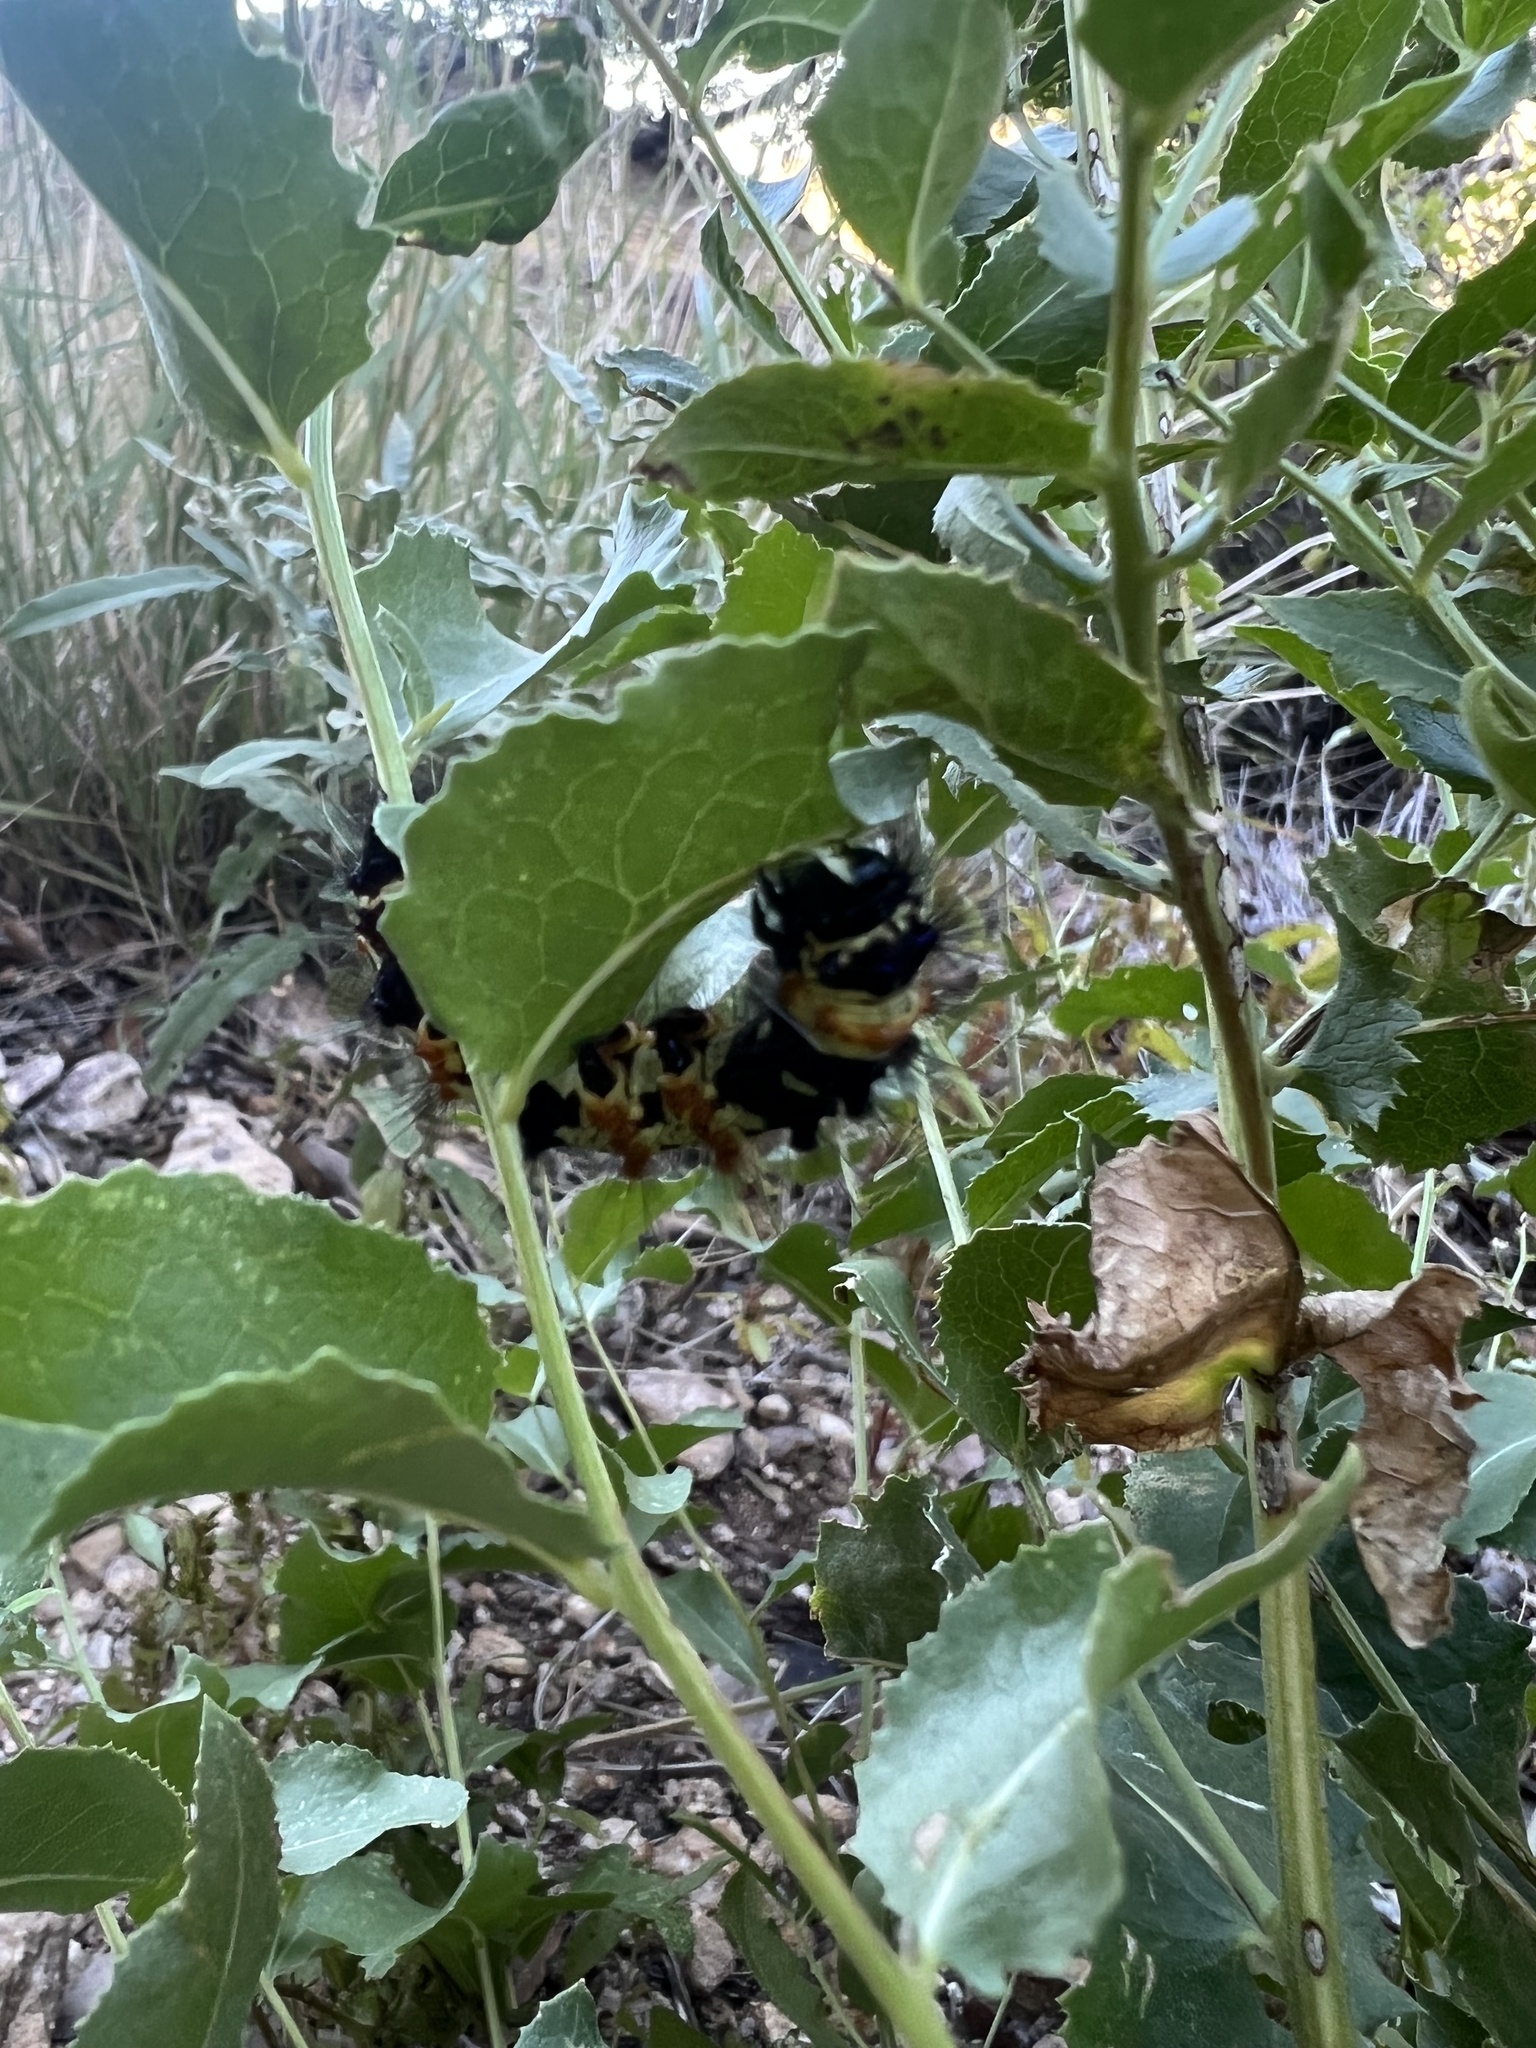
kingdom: Animalia
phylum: Arthropoda
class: Insecta
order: Lepidoptera
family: Erebidae
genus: Dysschema
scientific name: Dysschema howardi
